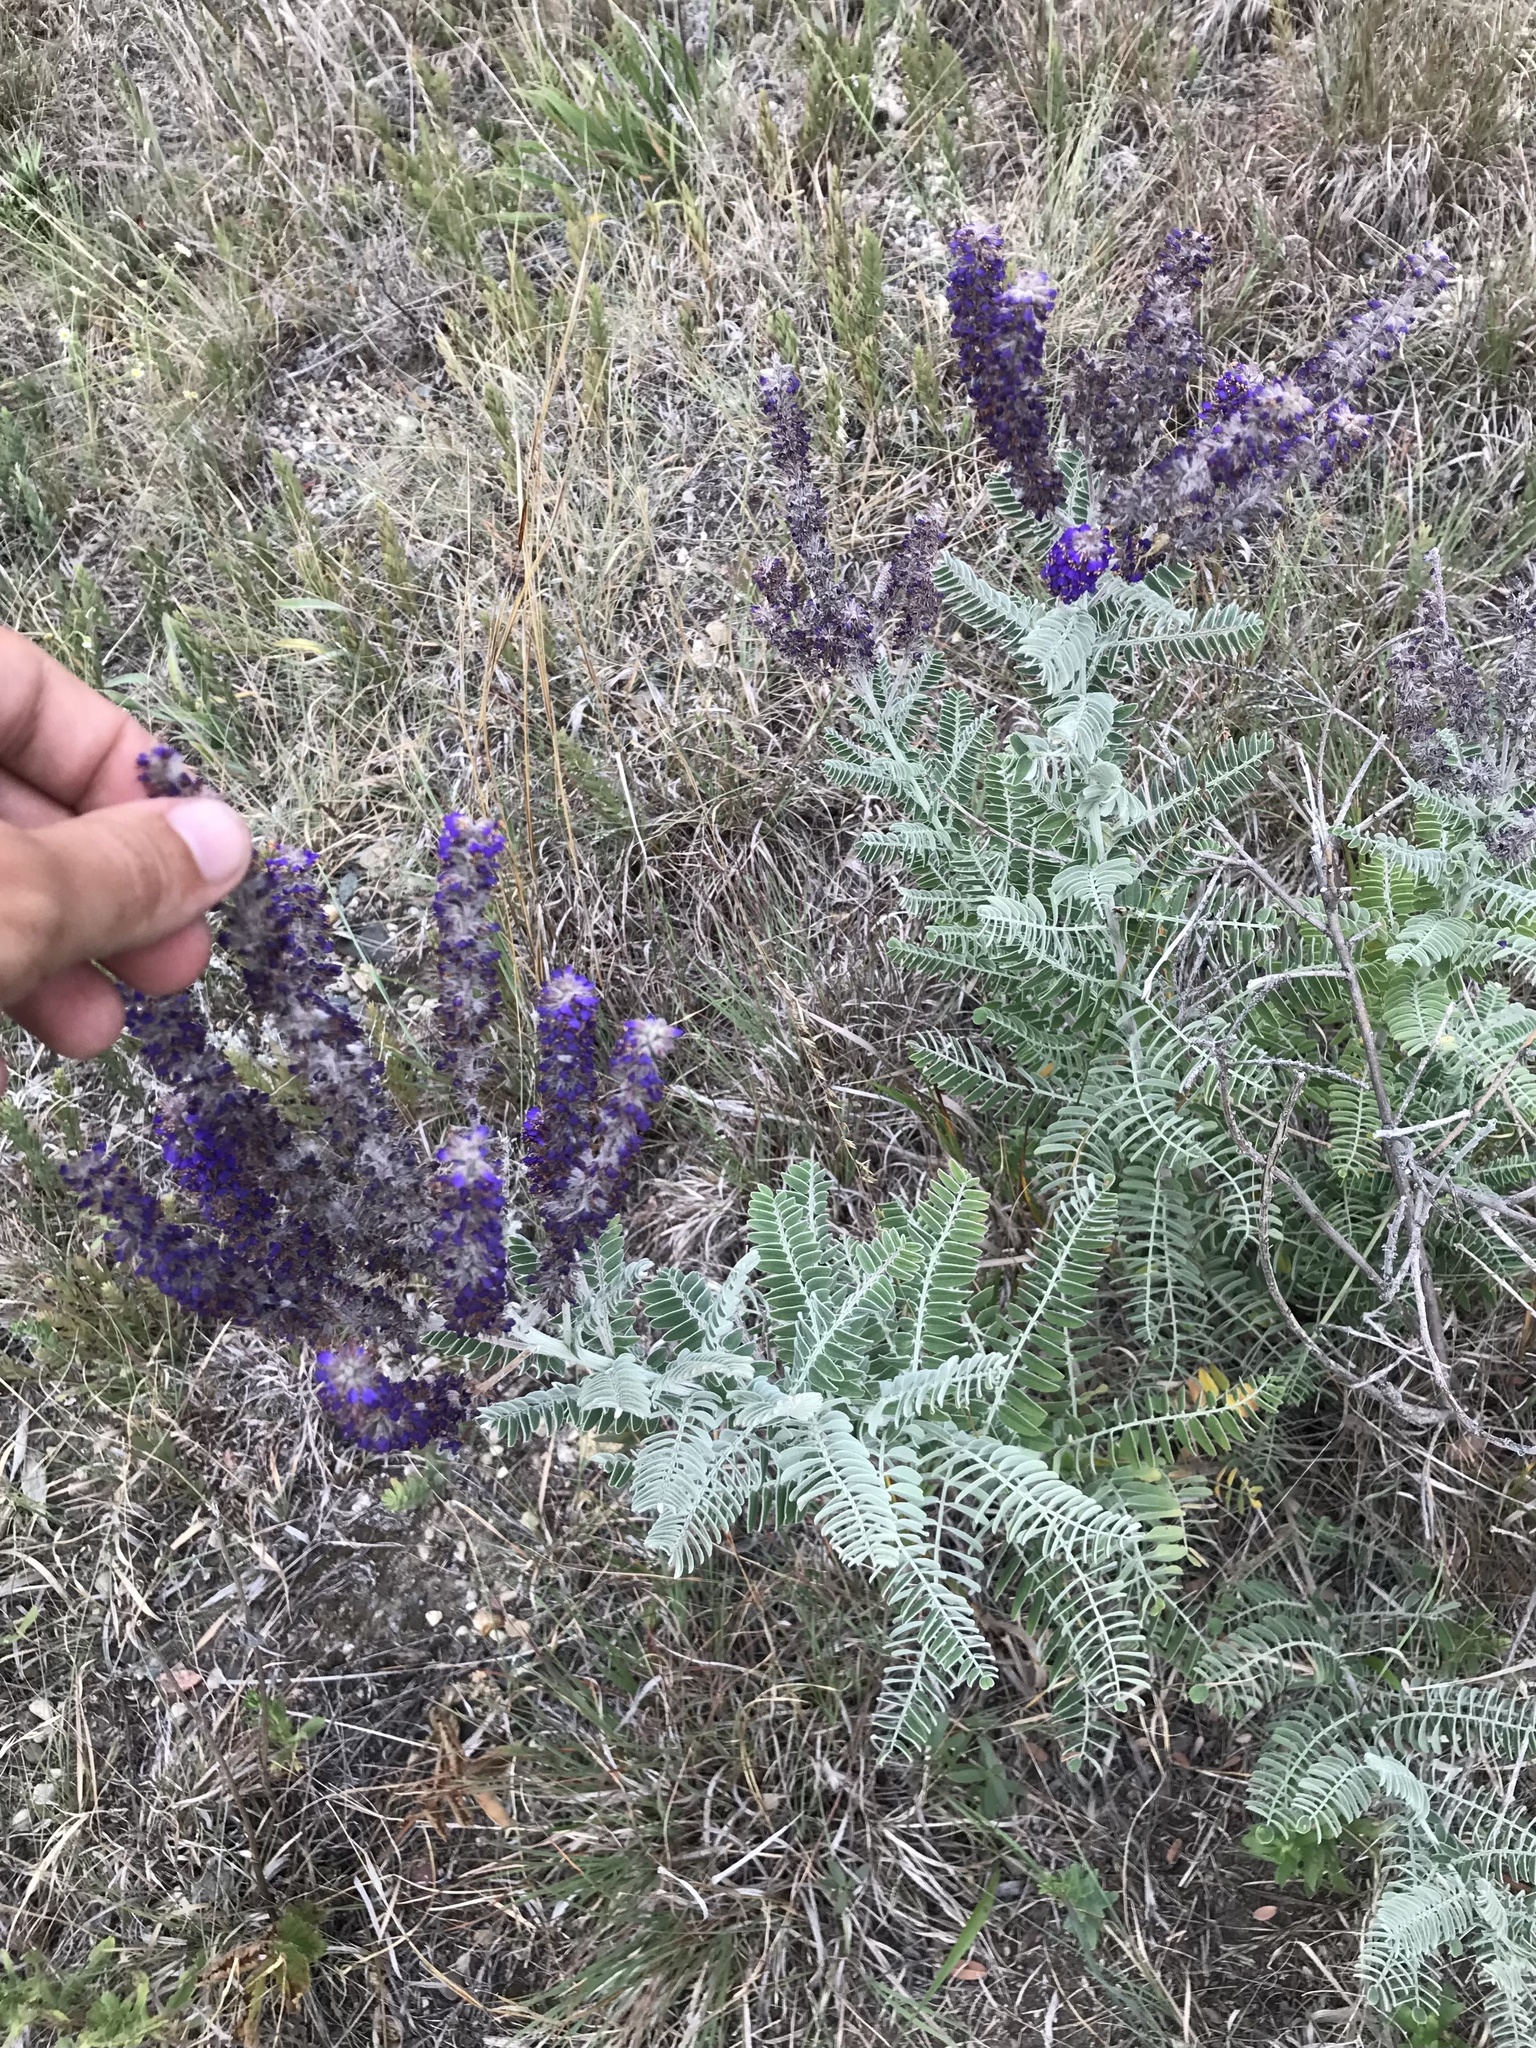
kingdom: Plantae
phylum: Tracheophyta
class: Magnoliopsida
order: Fabales
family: Fabaceae
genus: Amorpha
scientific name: Amorpha canescens
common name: Leadplant
